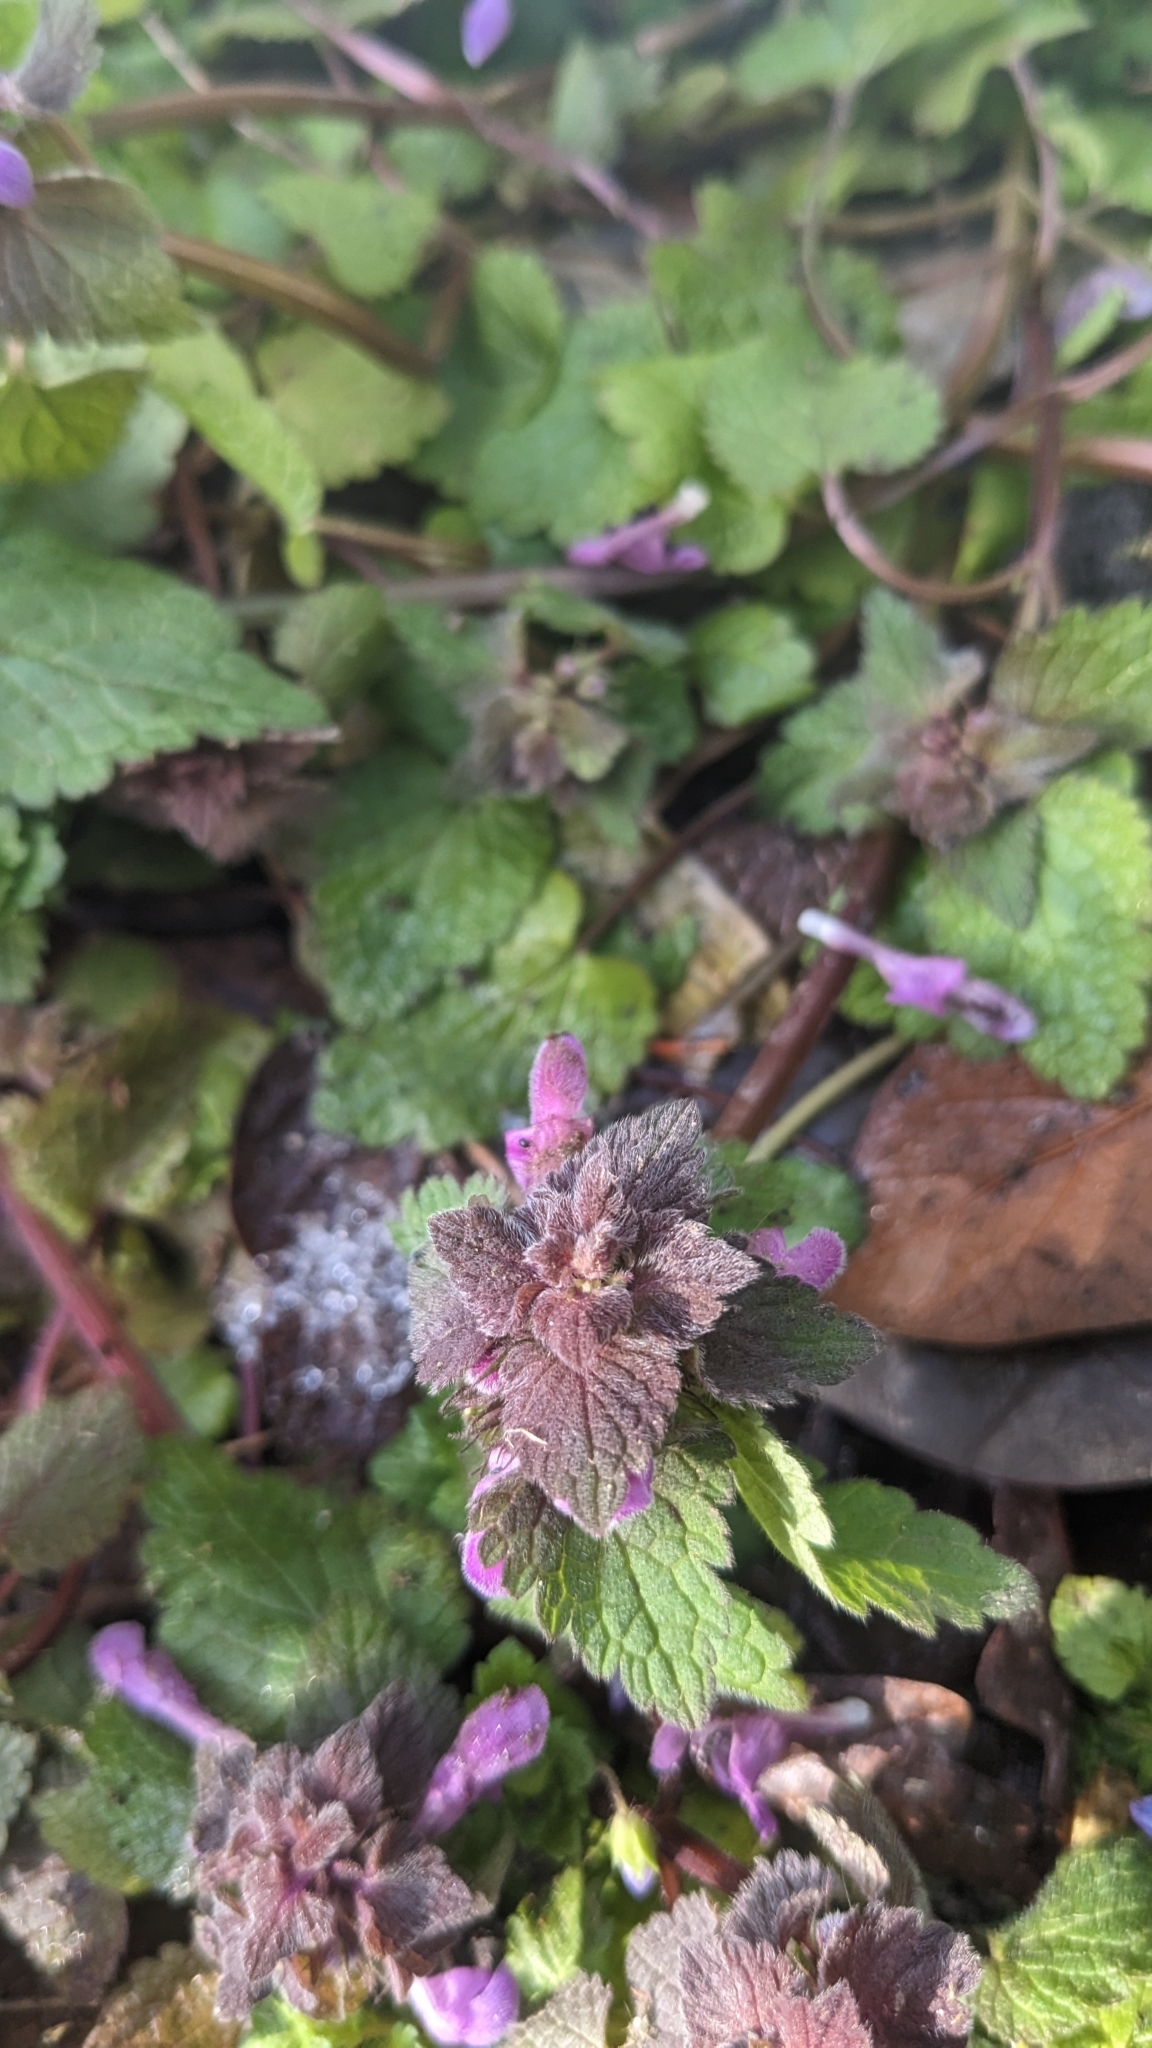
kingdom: Plantae
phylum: Tracheophyta
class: Magnoliopsida
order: Lamiales
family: Lamiaceae
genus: Lamium
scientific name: Lamium purpureum
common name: Red dead-nettle
